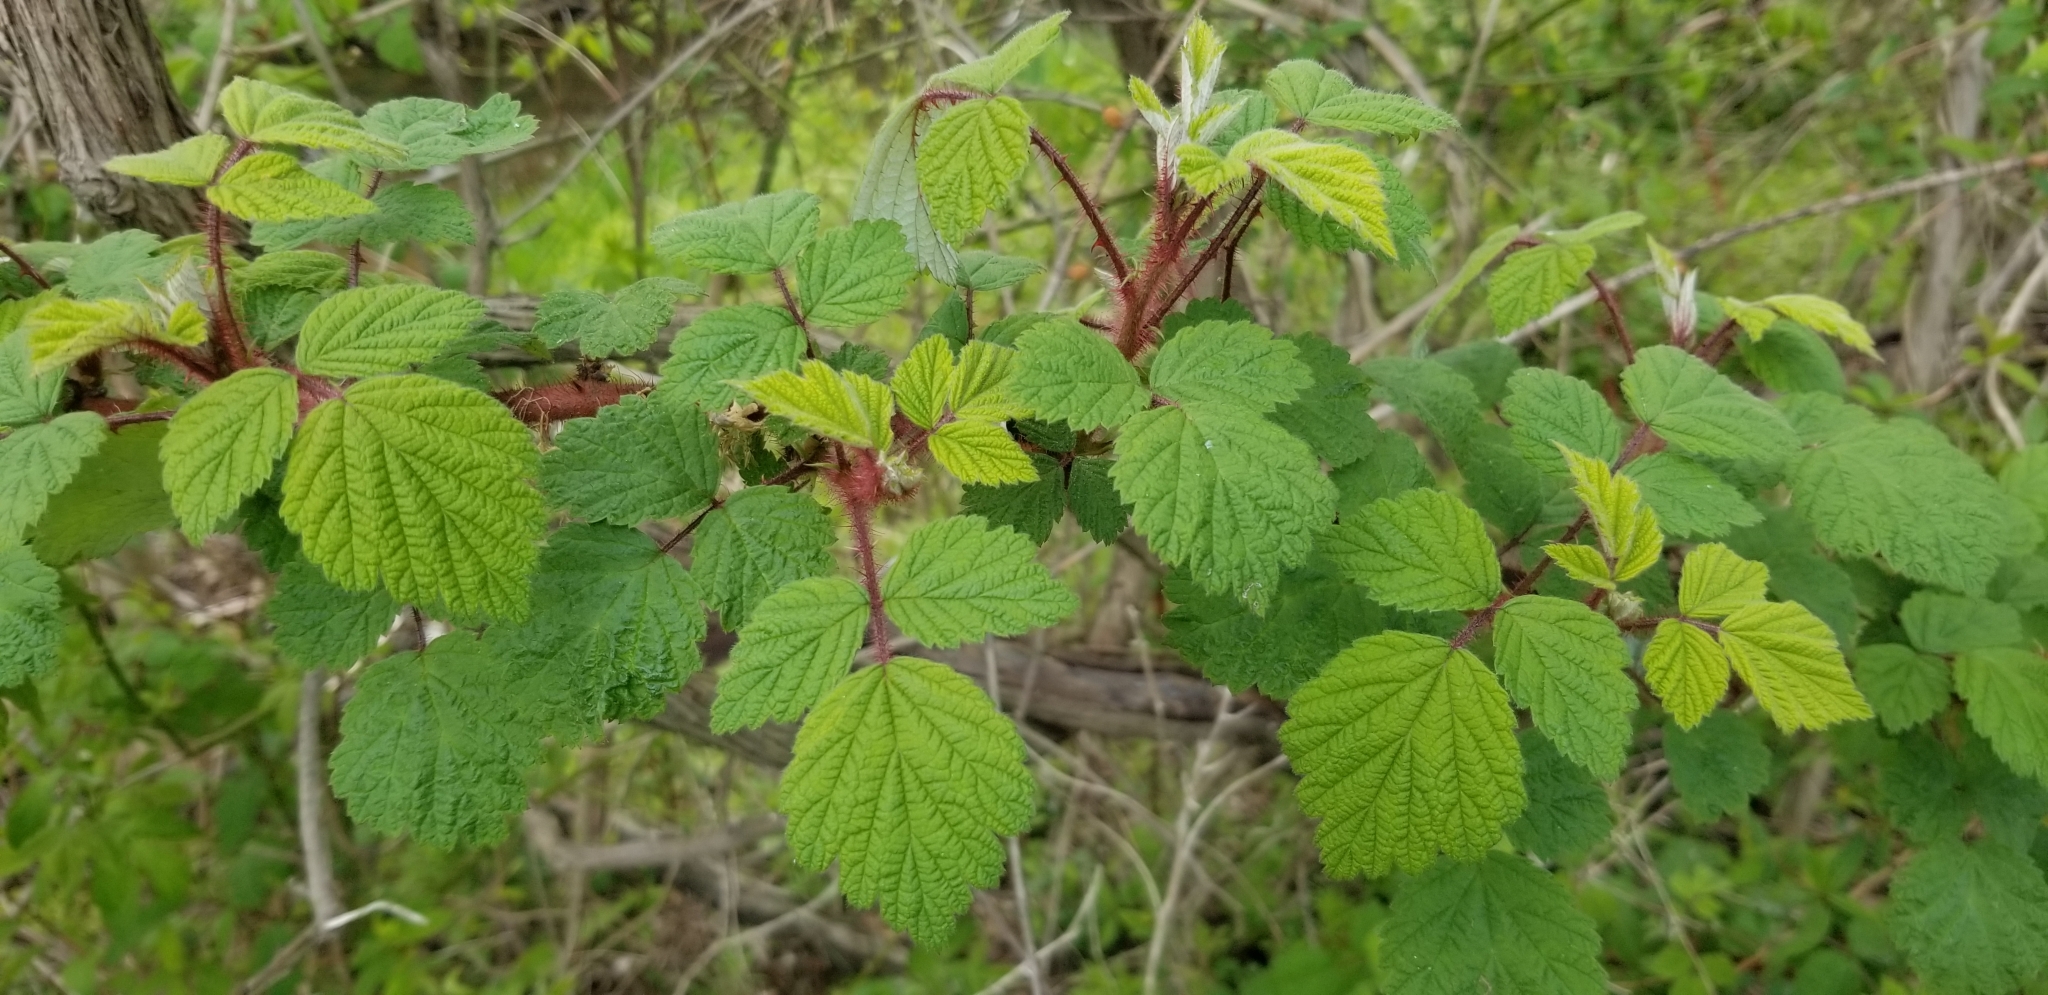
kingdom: Plantae
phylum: Tracheophyta
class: Magnoliopsida
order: Rosales
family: Rosaceae
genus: Rubus
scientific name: Rubus phoenicolasius
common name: Japanese wineberry
